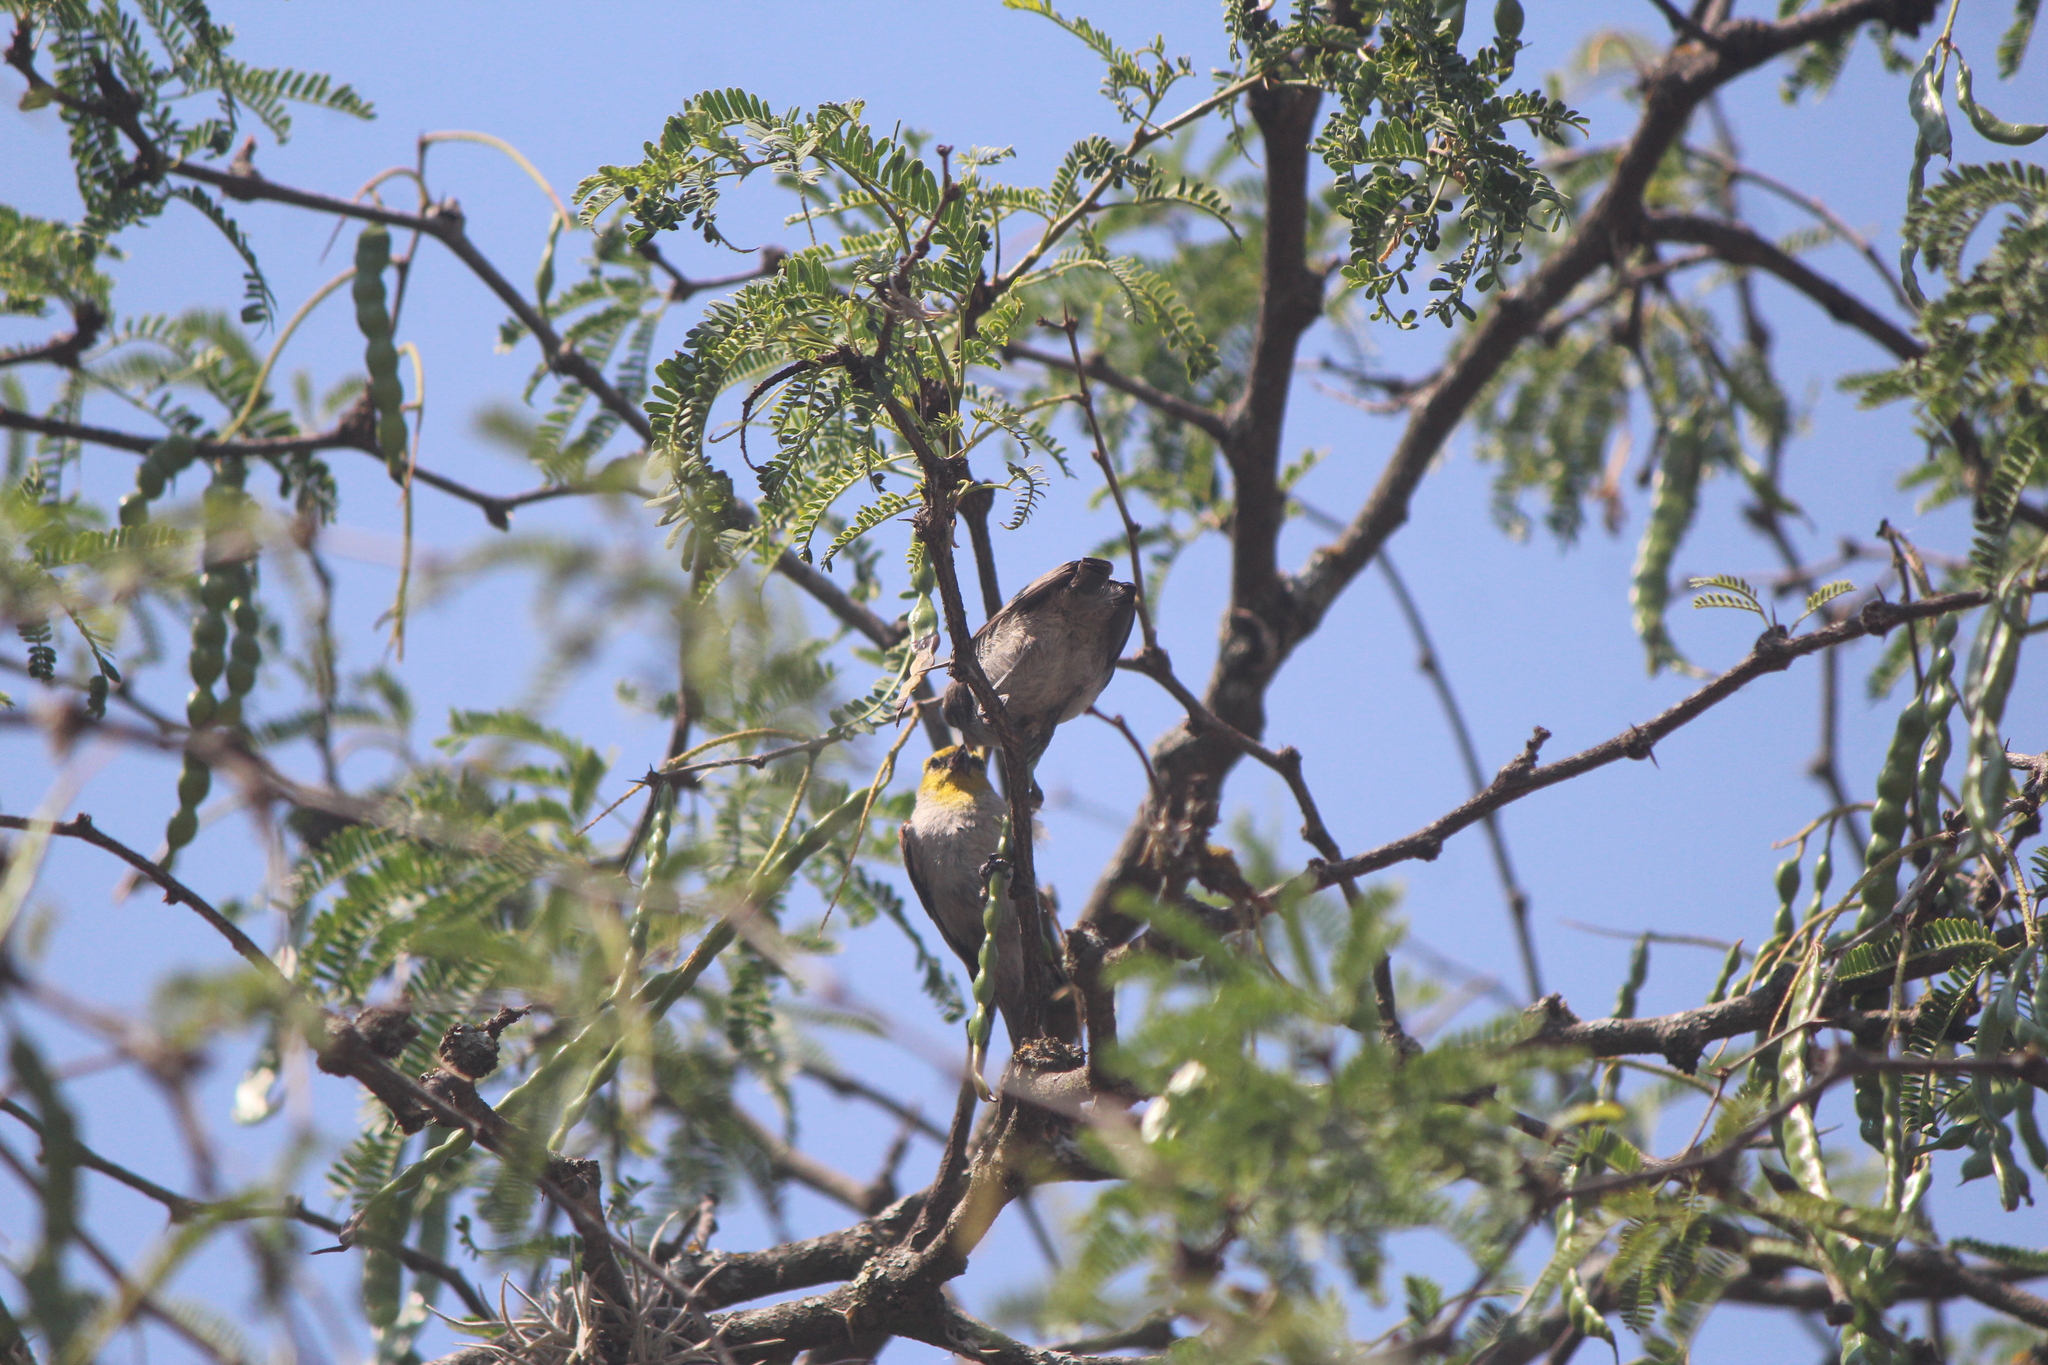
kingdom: Animalia
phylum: Chordata
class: Aves
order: Passeriformes
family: Remizidae
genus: Auriparus
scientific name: Auriparus flaviceps
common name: Verdin
